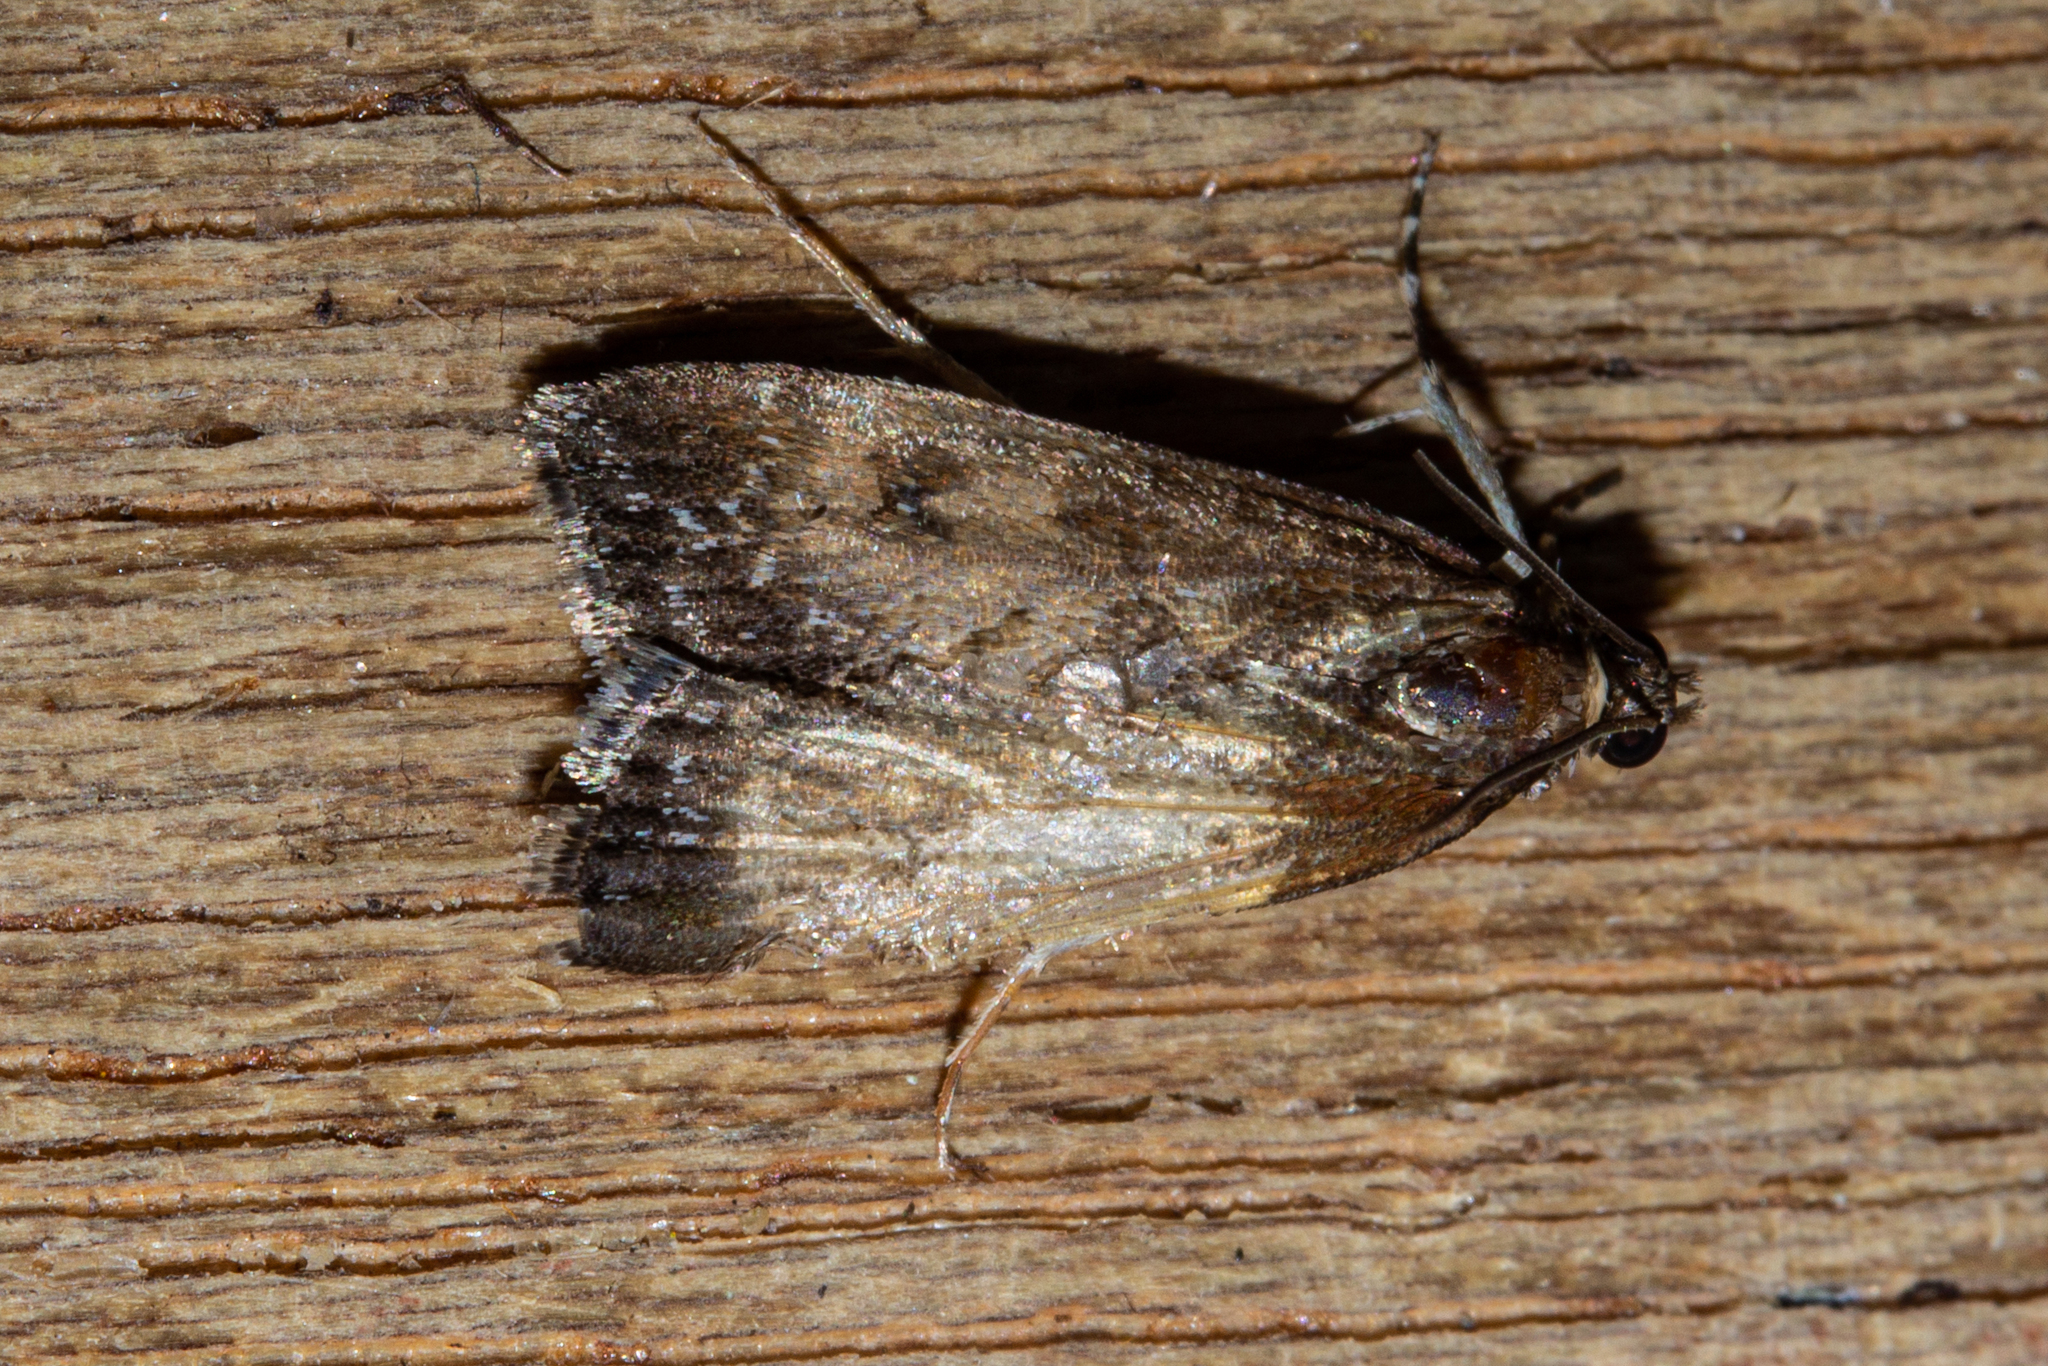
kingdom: Animalia
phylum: Arthropoda
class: Insecta
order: Lepidoptera
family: Crambidae
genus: Eudonia
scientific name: Eudonia asterisca
